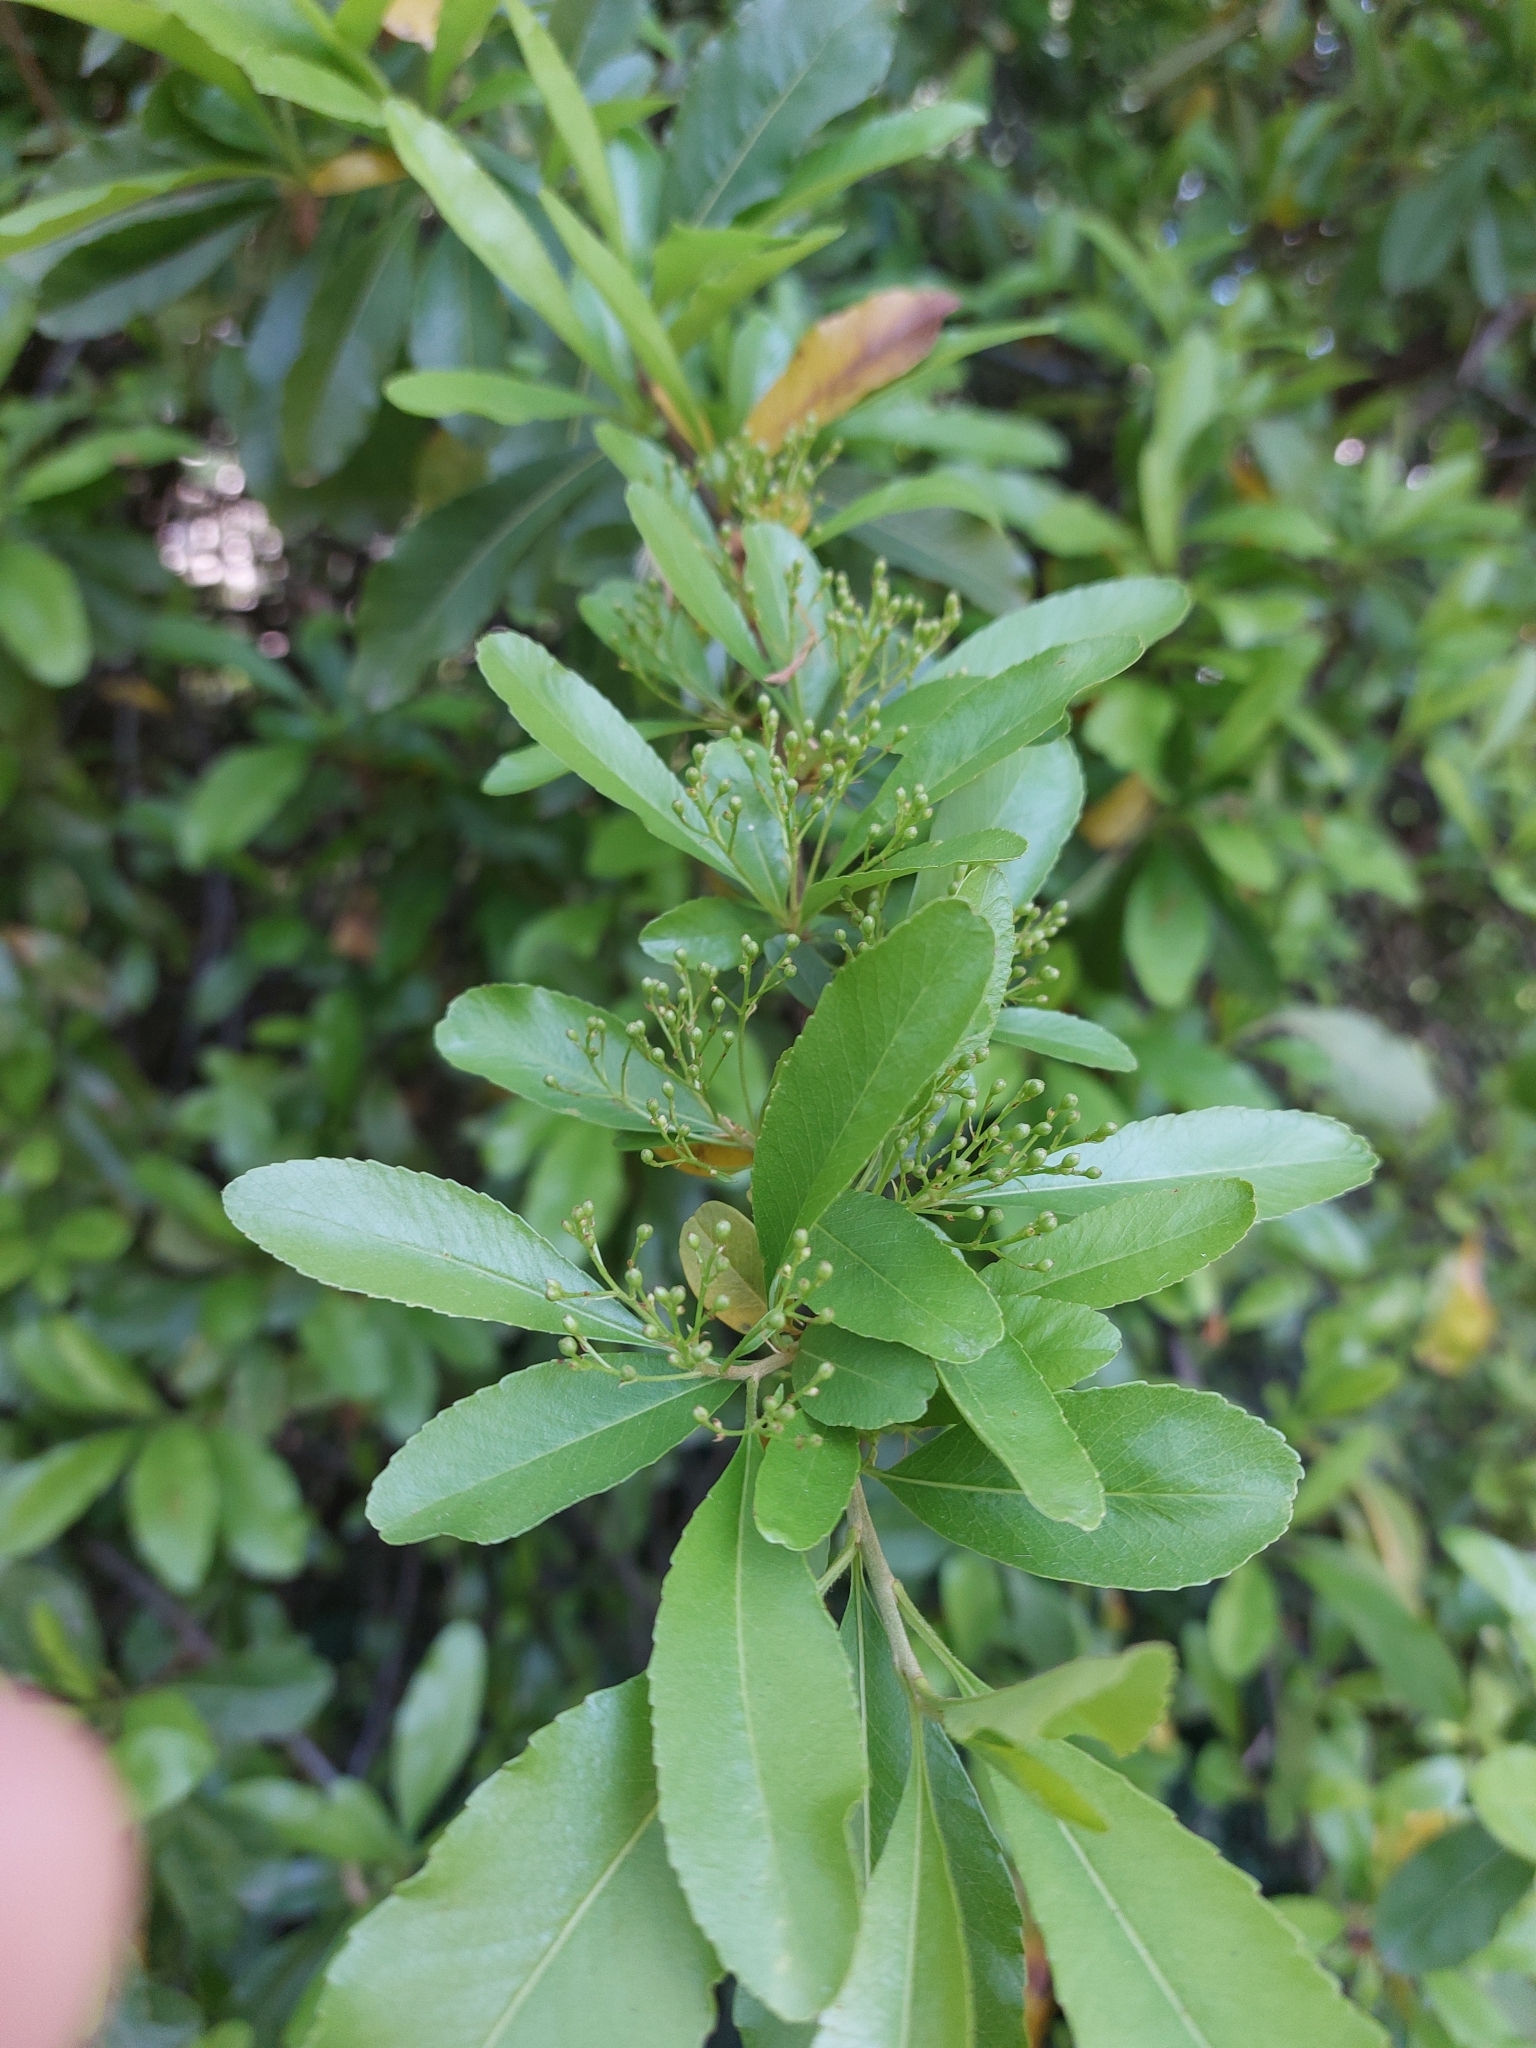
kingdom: Plantae
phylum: Tracheophyta
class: Magnoliopsida
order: Rosales
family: Rosaceae
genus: Pyracantha
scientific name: Pyracantha coccinea
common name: Firethorn
